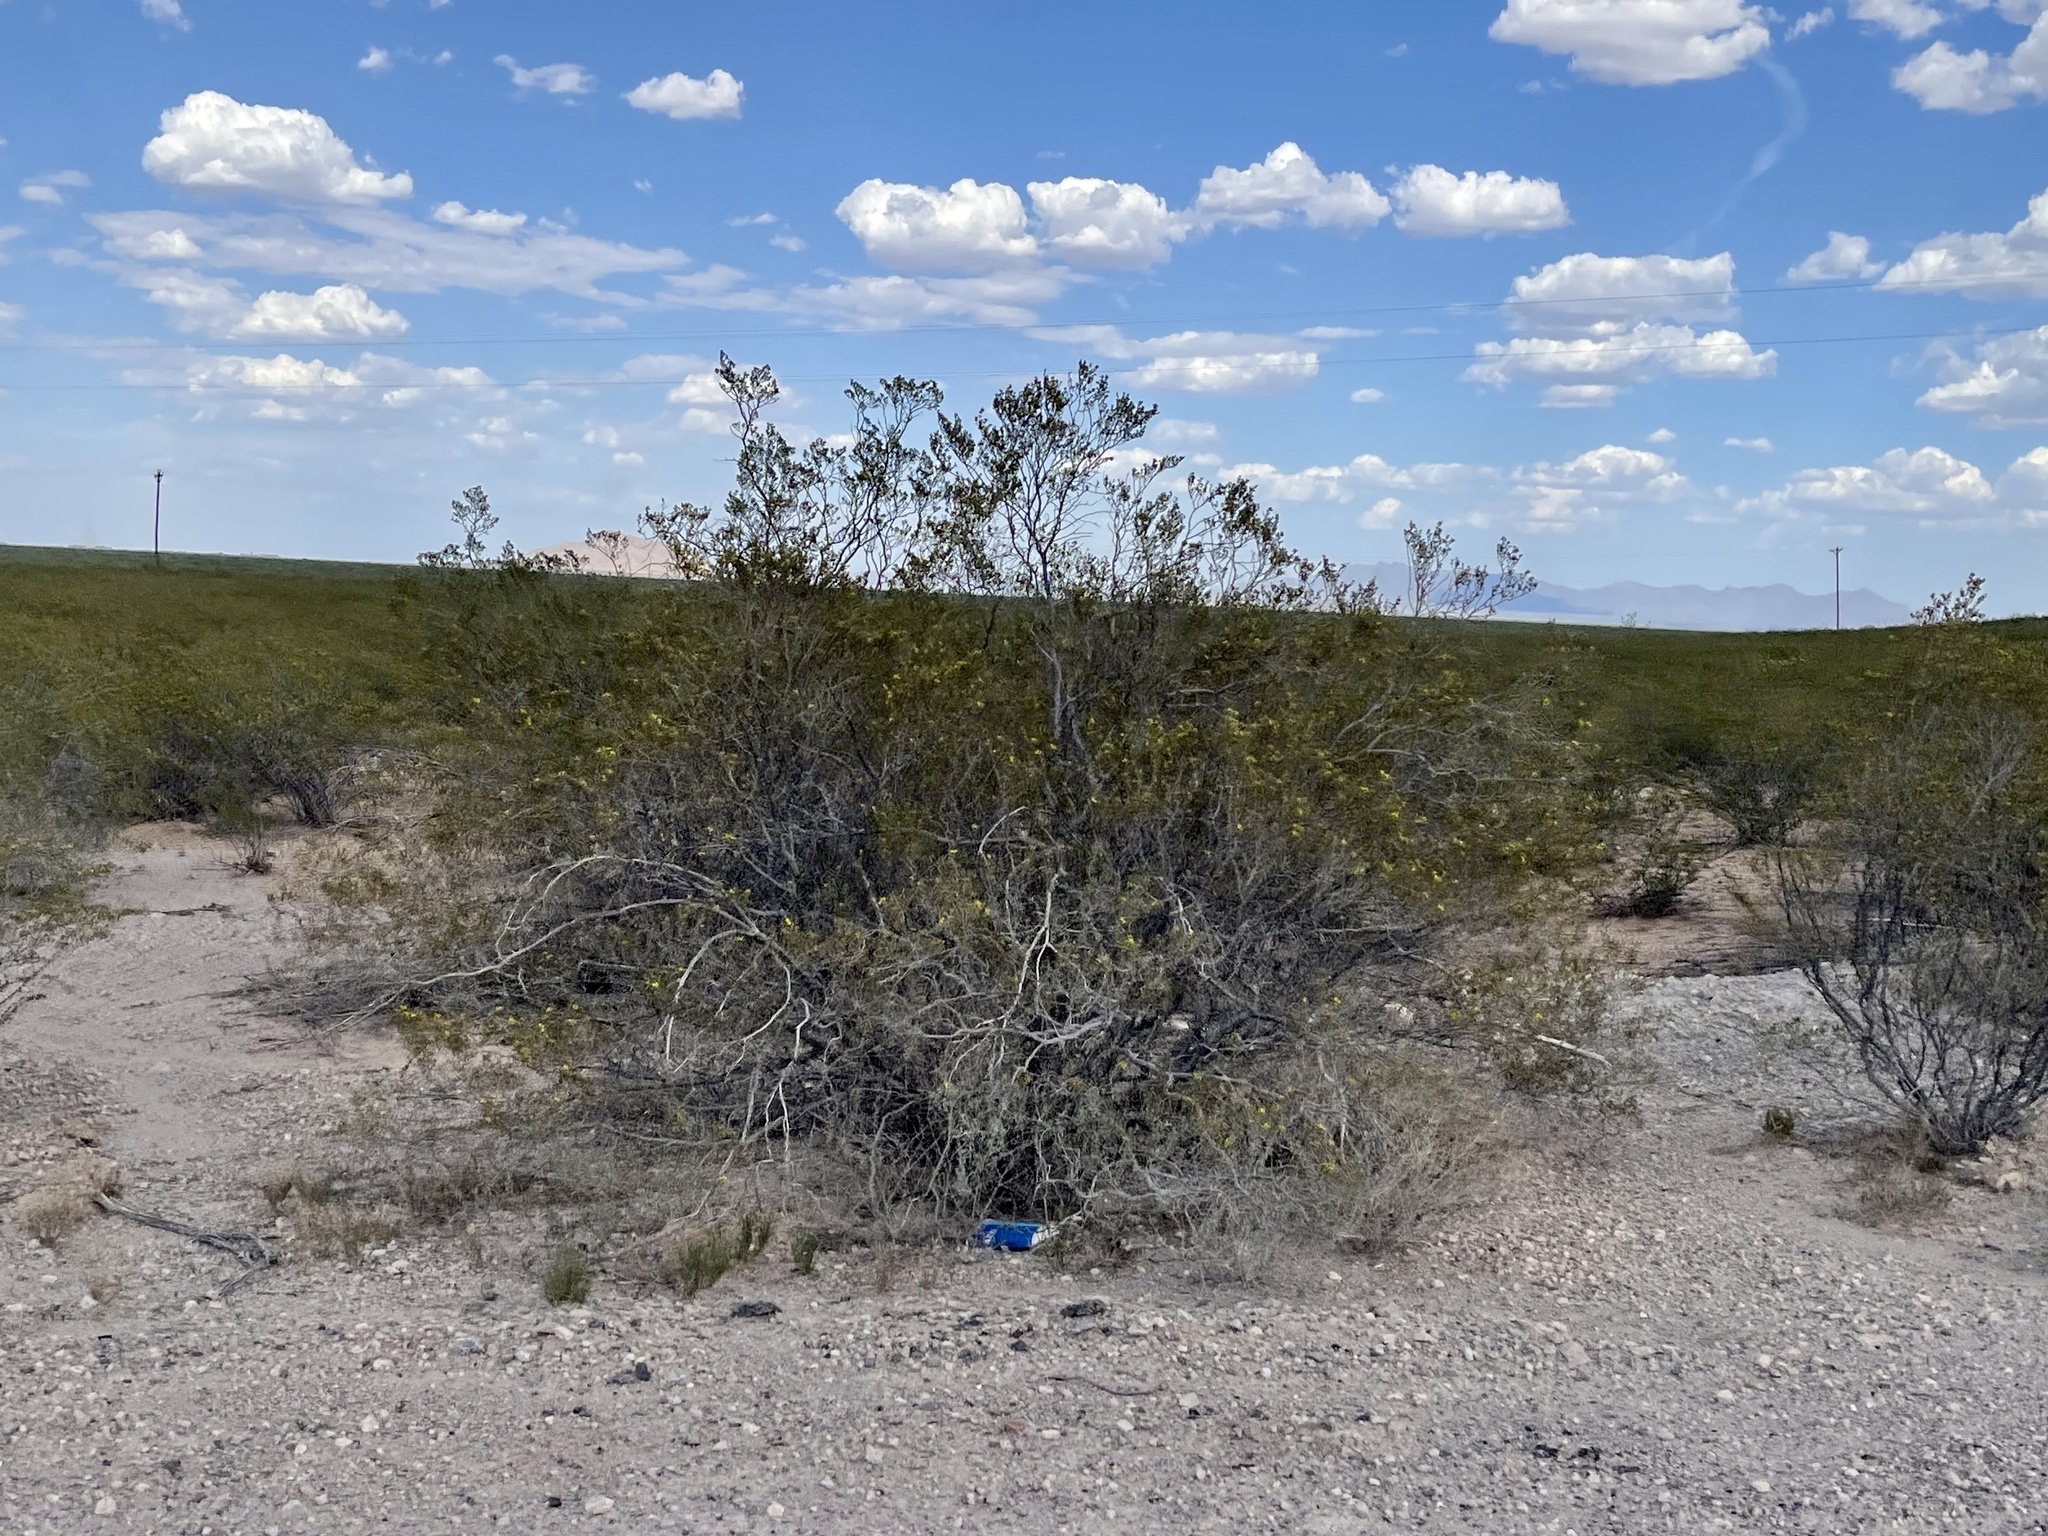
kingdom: Plantae
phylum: Tracheophyta
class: Magnoliopsida
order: Zygophyllales
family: Zygophyllaceae
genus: Larrea
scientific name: Larrea tridentata
